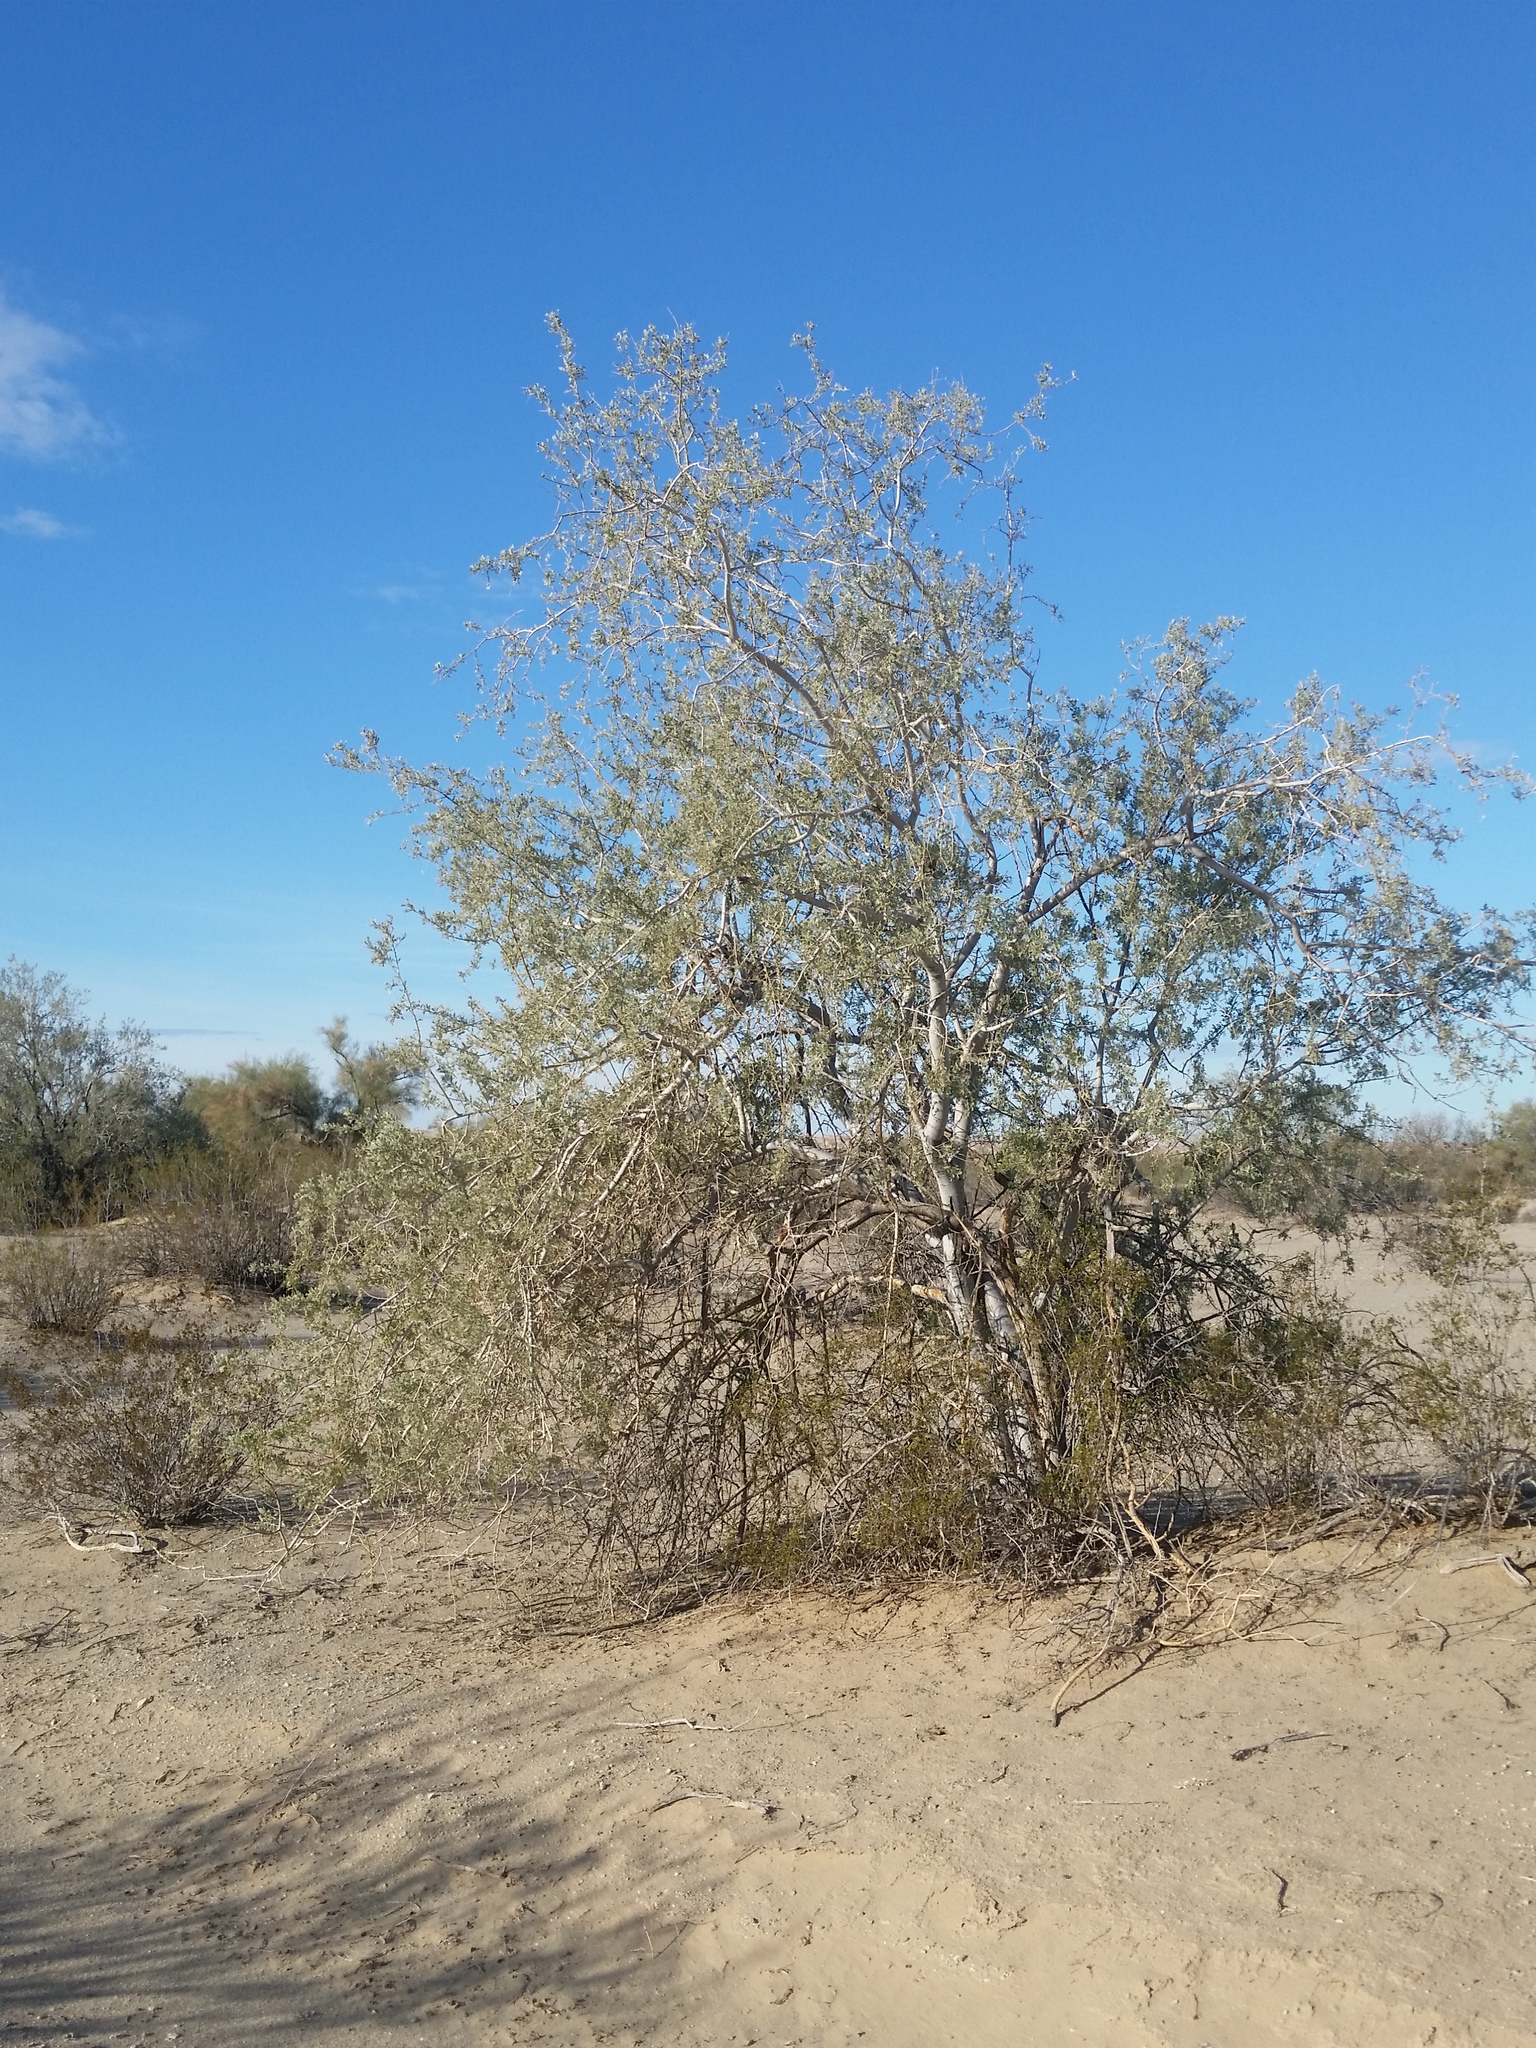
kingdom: Plantae
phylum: Tracheophyta
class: Magnoliopsida
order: Fabales
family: Fabaceae
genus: Olneya
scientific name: Olneya tesota
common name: Desert ironwood
